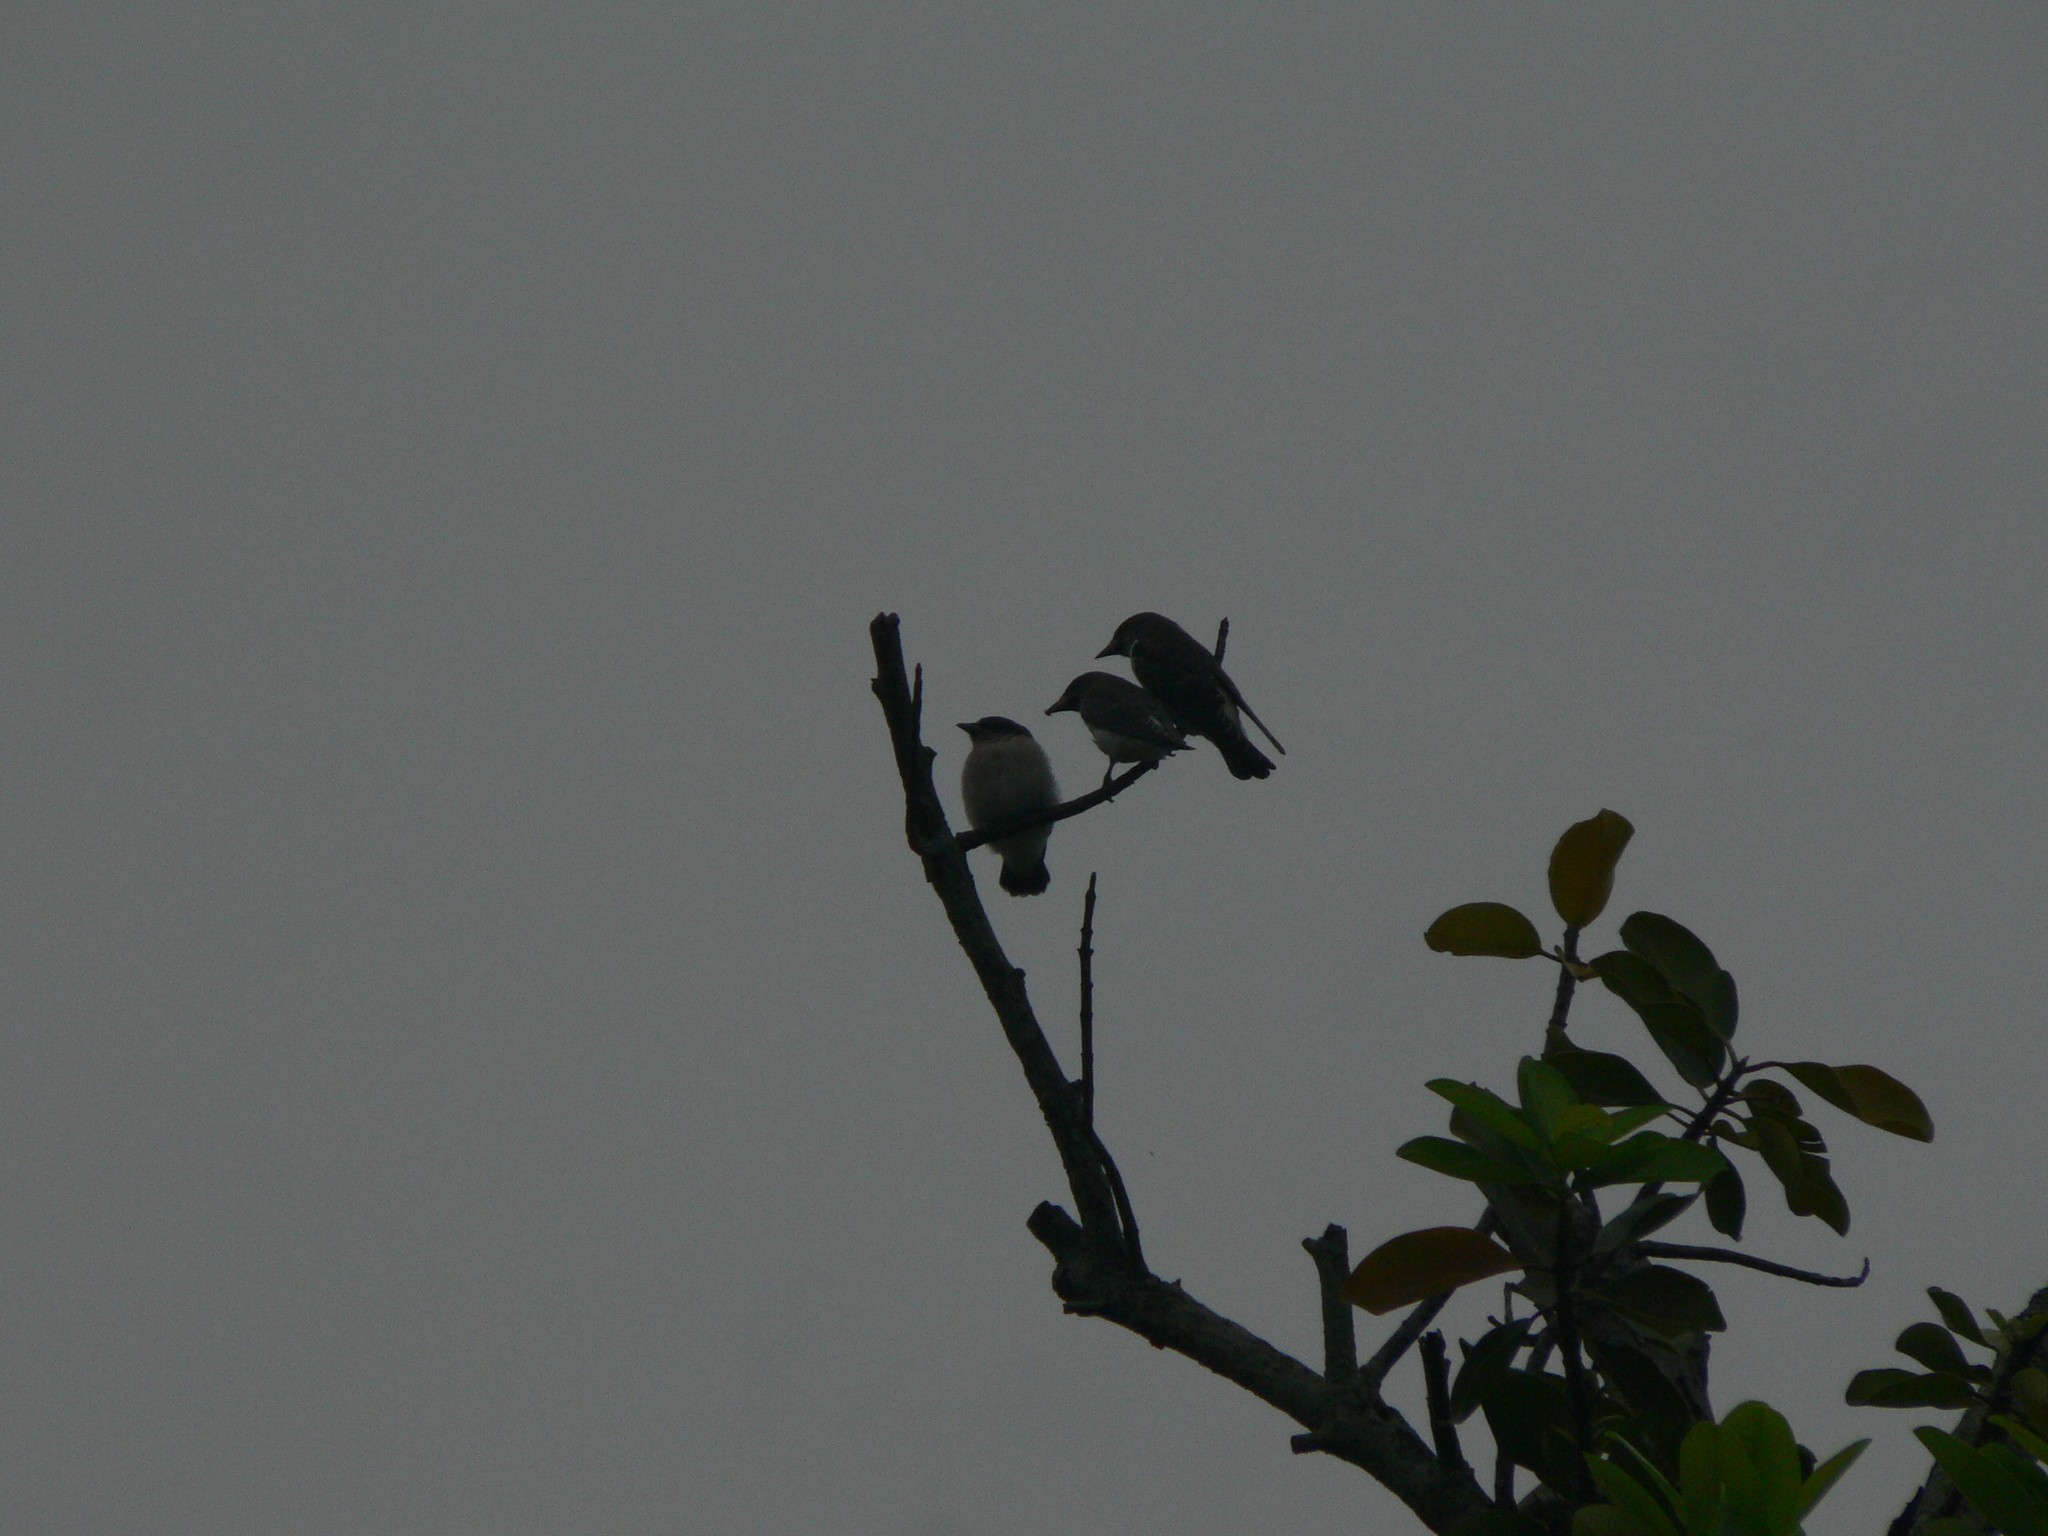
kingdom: Animalia
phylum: Chordata
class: Aves
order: Passeriformes
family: Artamidae
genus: Artamus
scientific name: Artamus leucoryn
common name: White-breasted woodswallow
